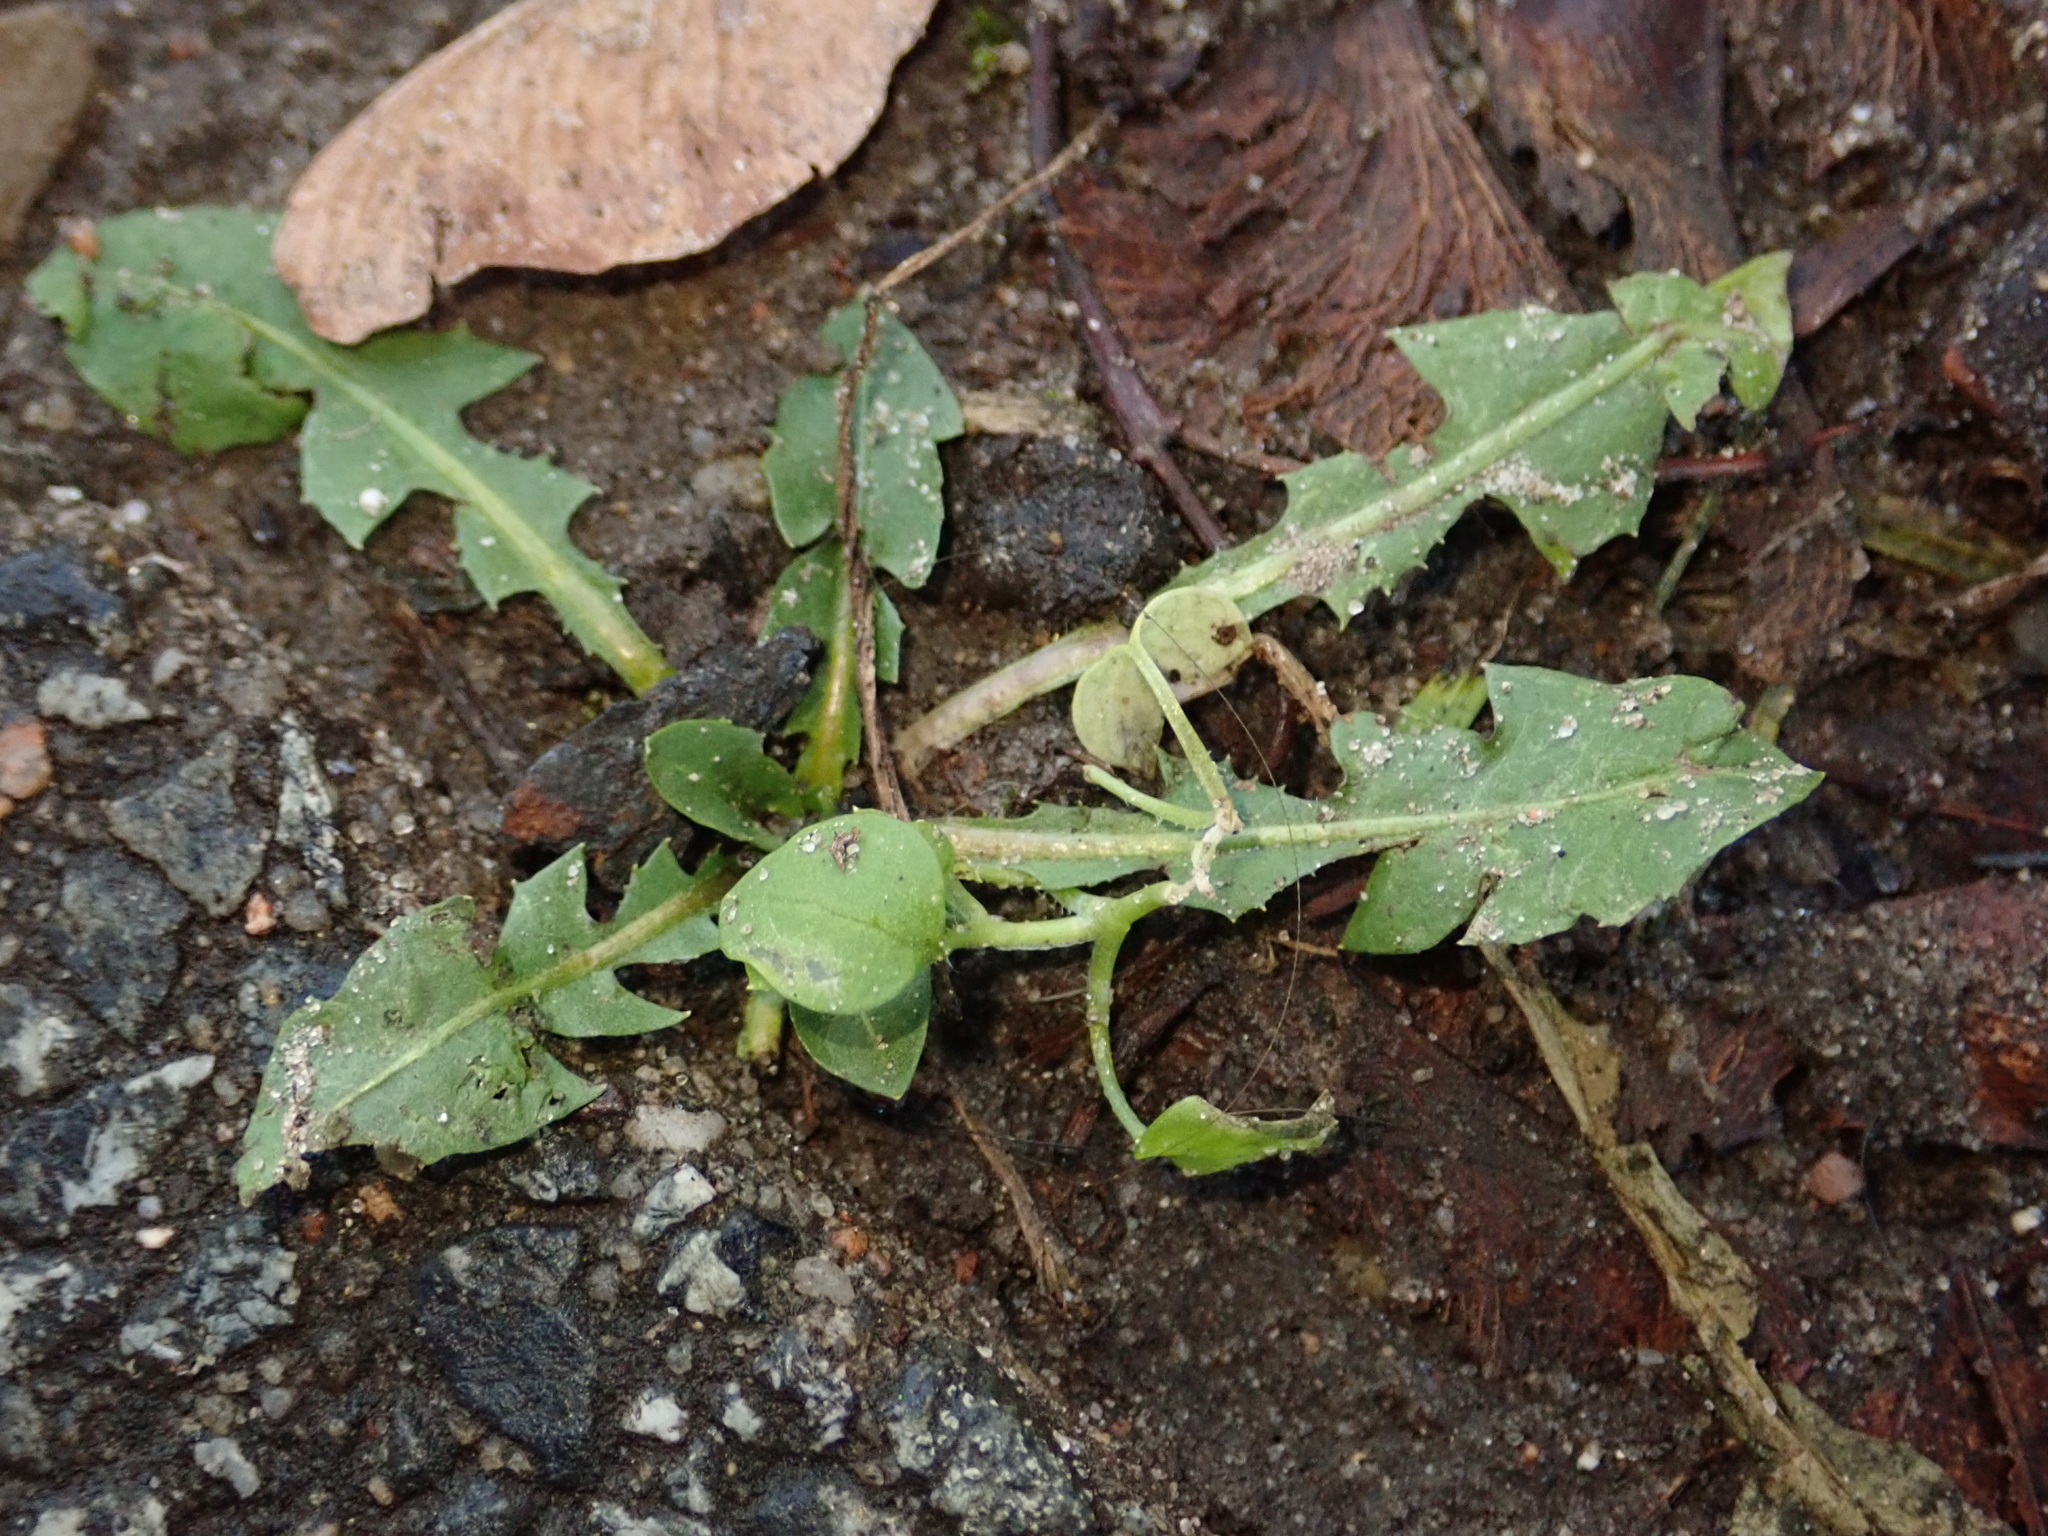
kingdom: Plantae
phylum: Tracheophyta
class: Magnoliopsida
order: Asterales
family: Asteraceae
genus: Taraxacum
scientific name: Taraxacum officinale
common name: Common dandelion
